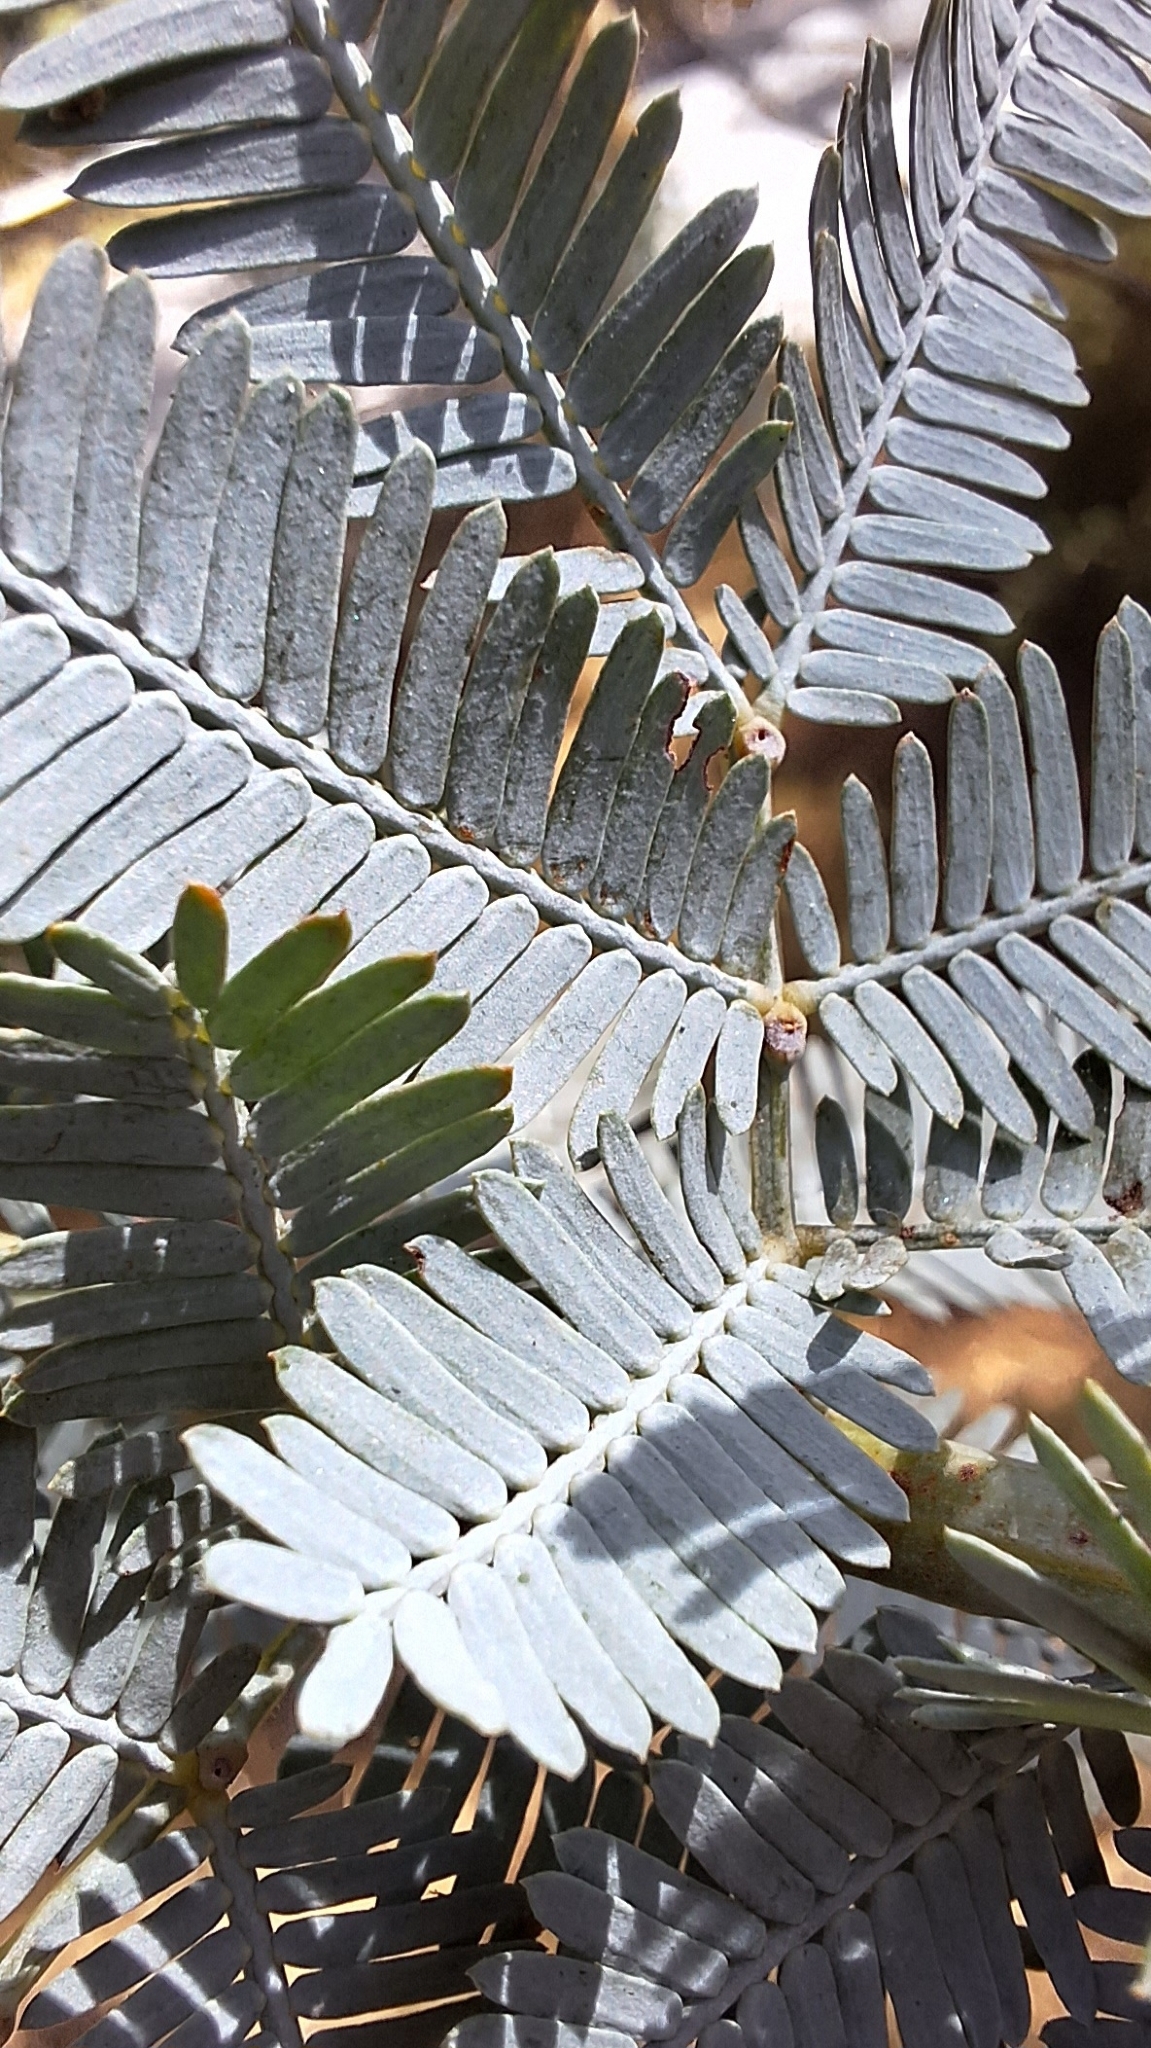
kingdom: Plantae
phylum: Tracheophyta
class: Magnoliopsida
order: Fabales
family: Fabaceae
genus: Acacia
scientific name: Acacia baileyana
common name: Cootamundra wattle
